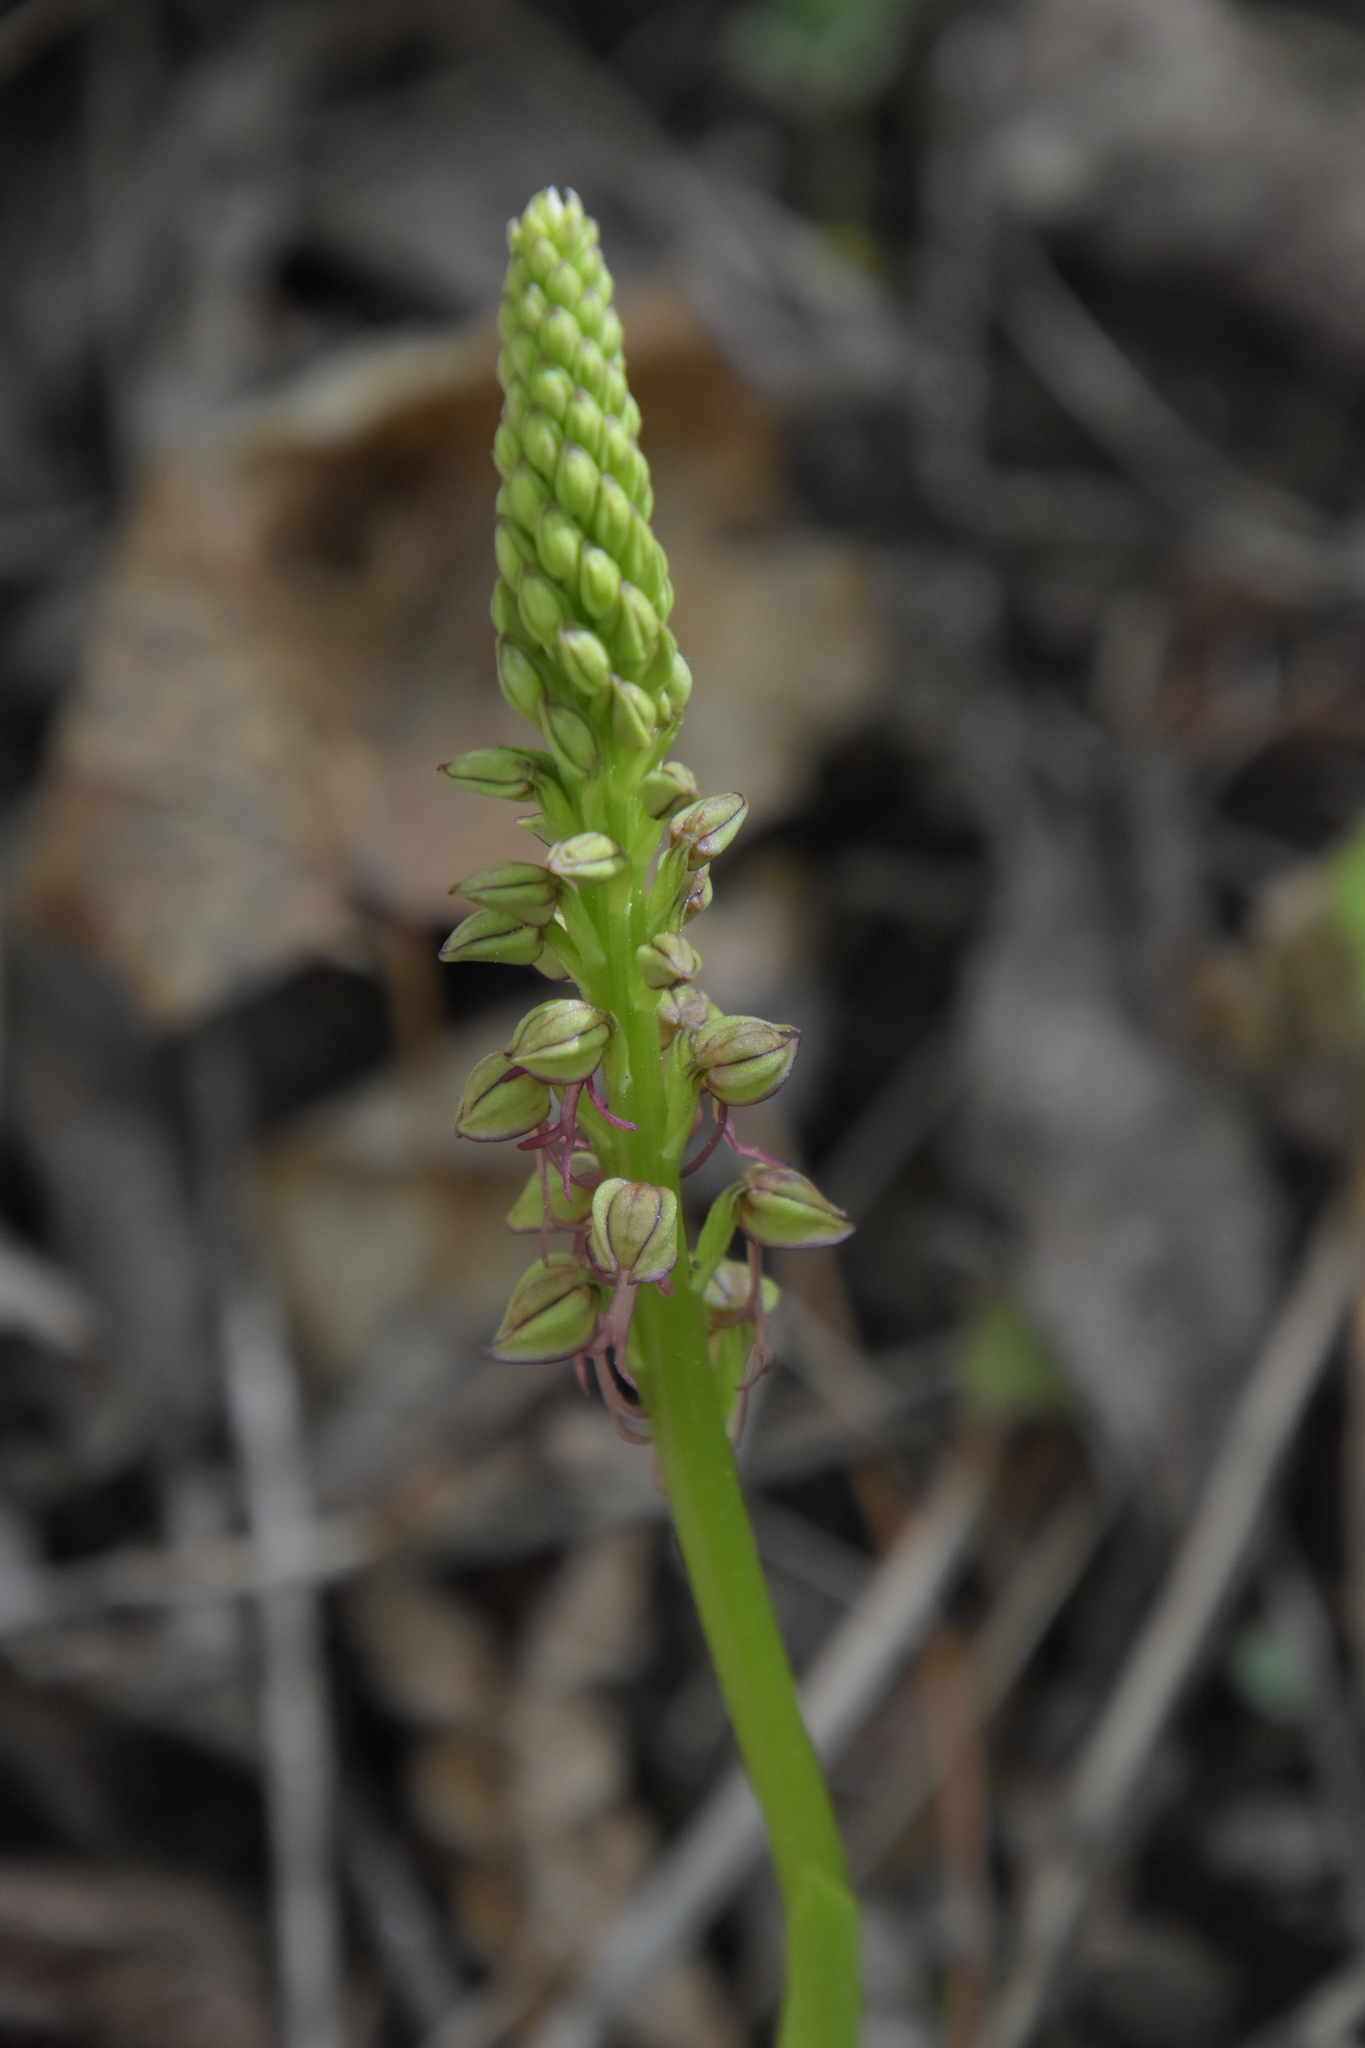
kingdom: Plantae
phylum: Tracheophyta
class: Liliopsida
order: Asparagales
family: Orchidaceae
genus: Orchis
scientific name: Orchis anthropophora
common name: Man orchid
